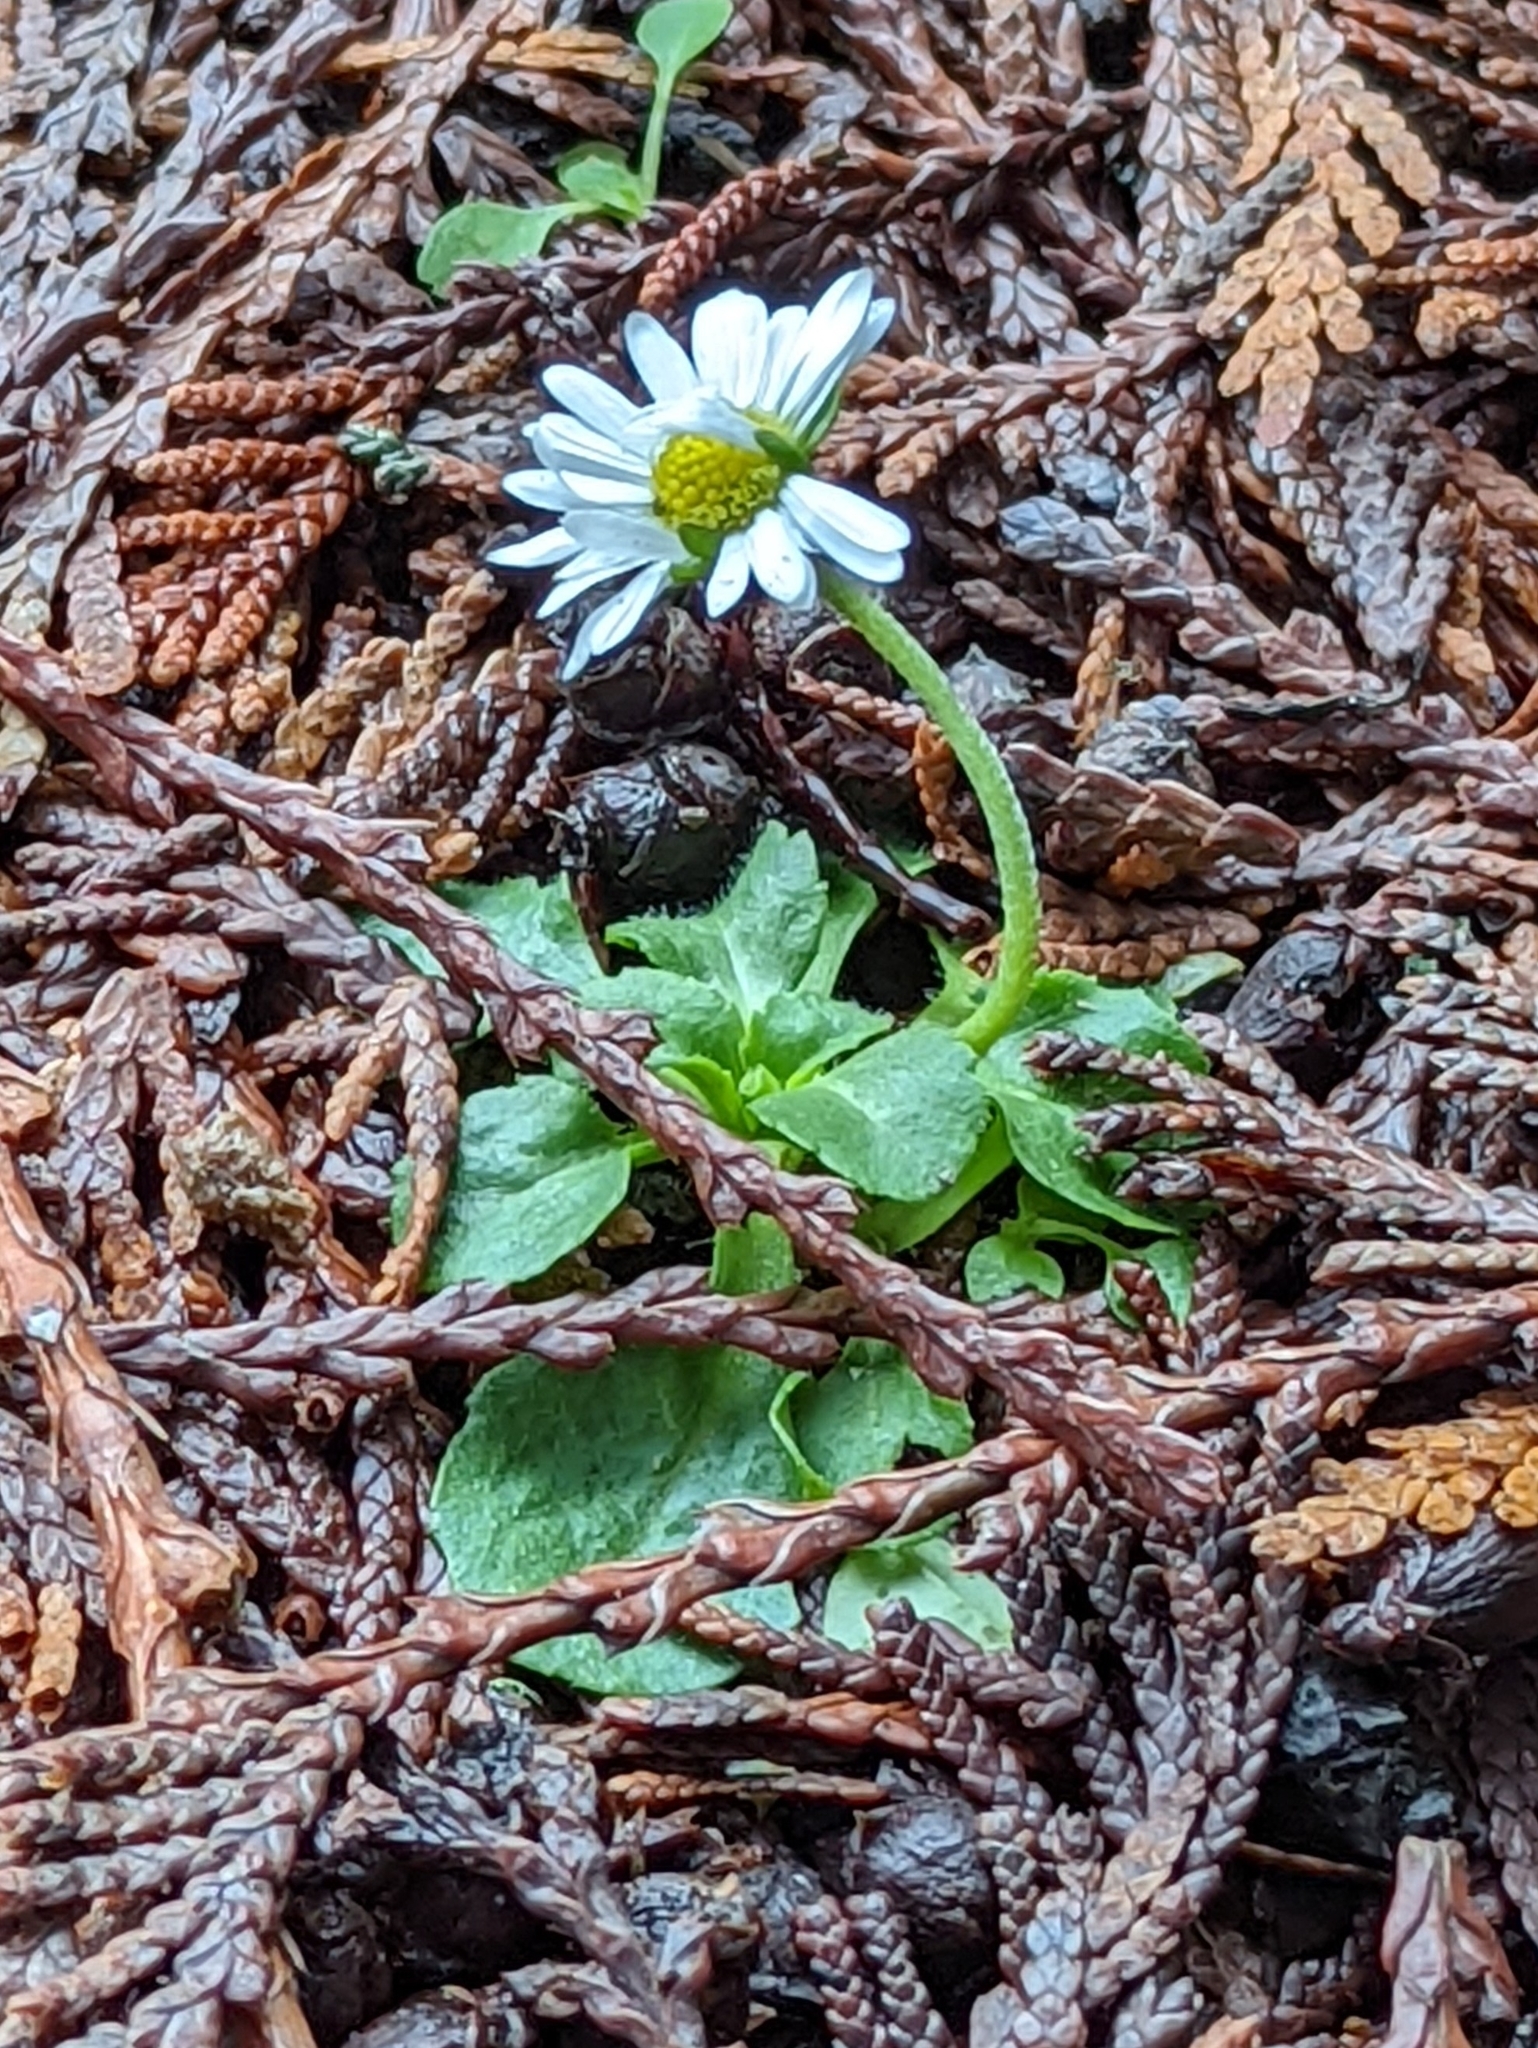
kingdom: Plantae
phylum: Tracheophyta
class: Magnoliopsida
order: Asterales
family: Asteraceae
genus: Bellis
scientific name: Bellis perennis
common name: Lawndaisy
